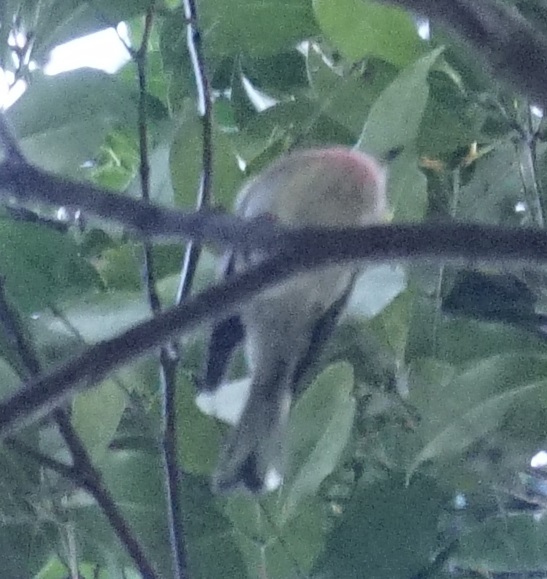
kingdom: Animalia
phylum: Chordata
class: Aves
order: Passeriformes
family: Petroicidae
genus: Petroica
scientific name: Petroica rosea
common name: Rose robin
